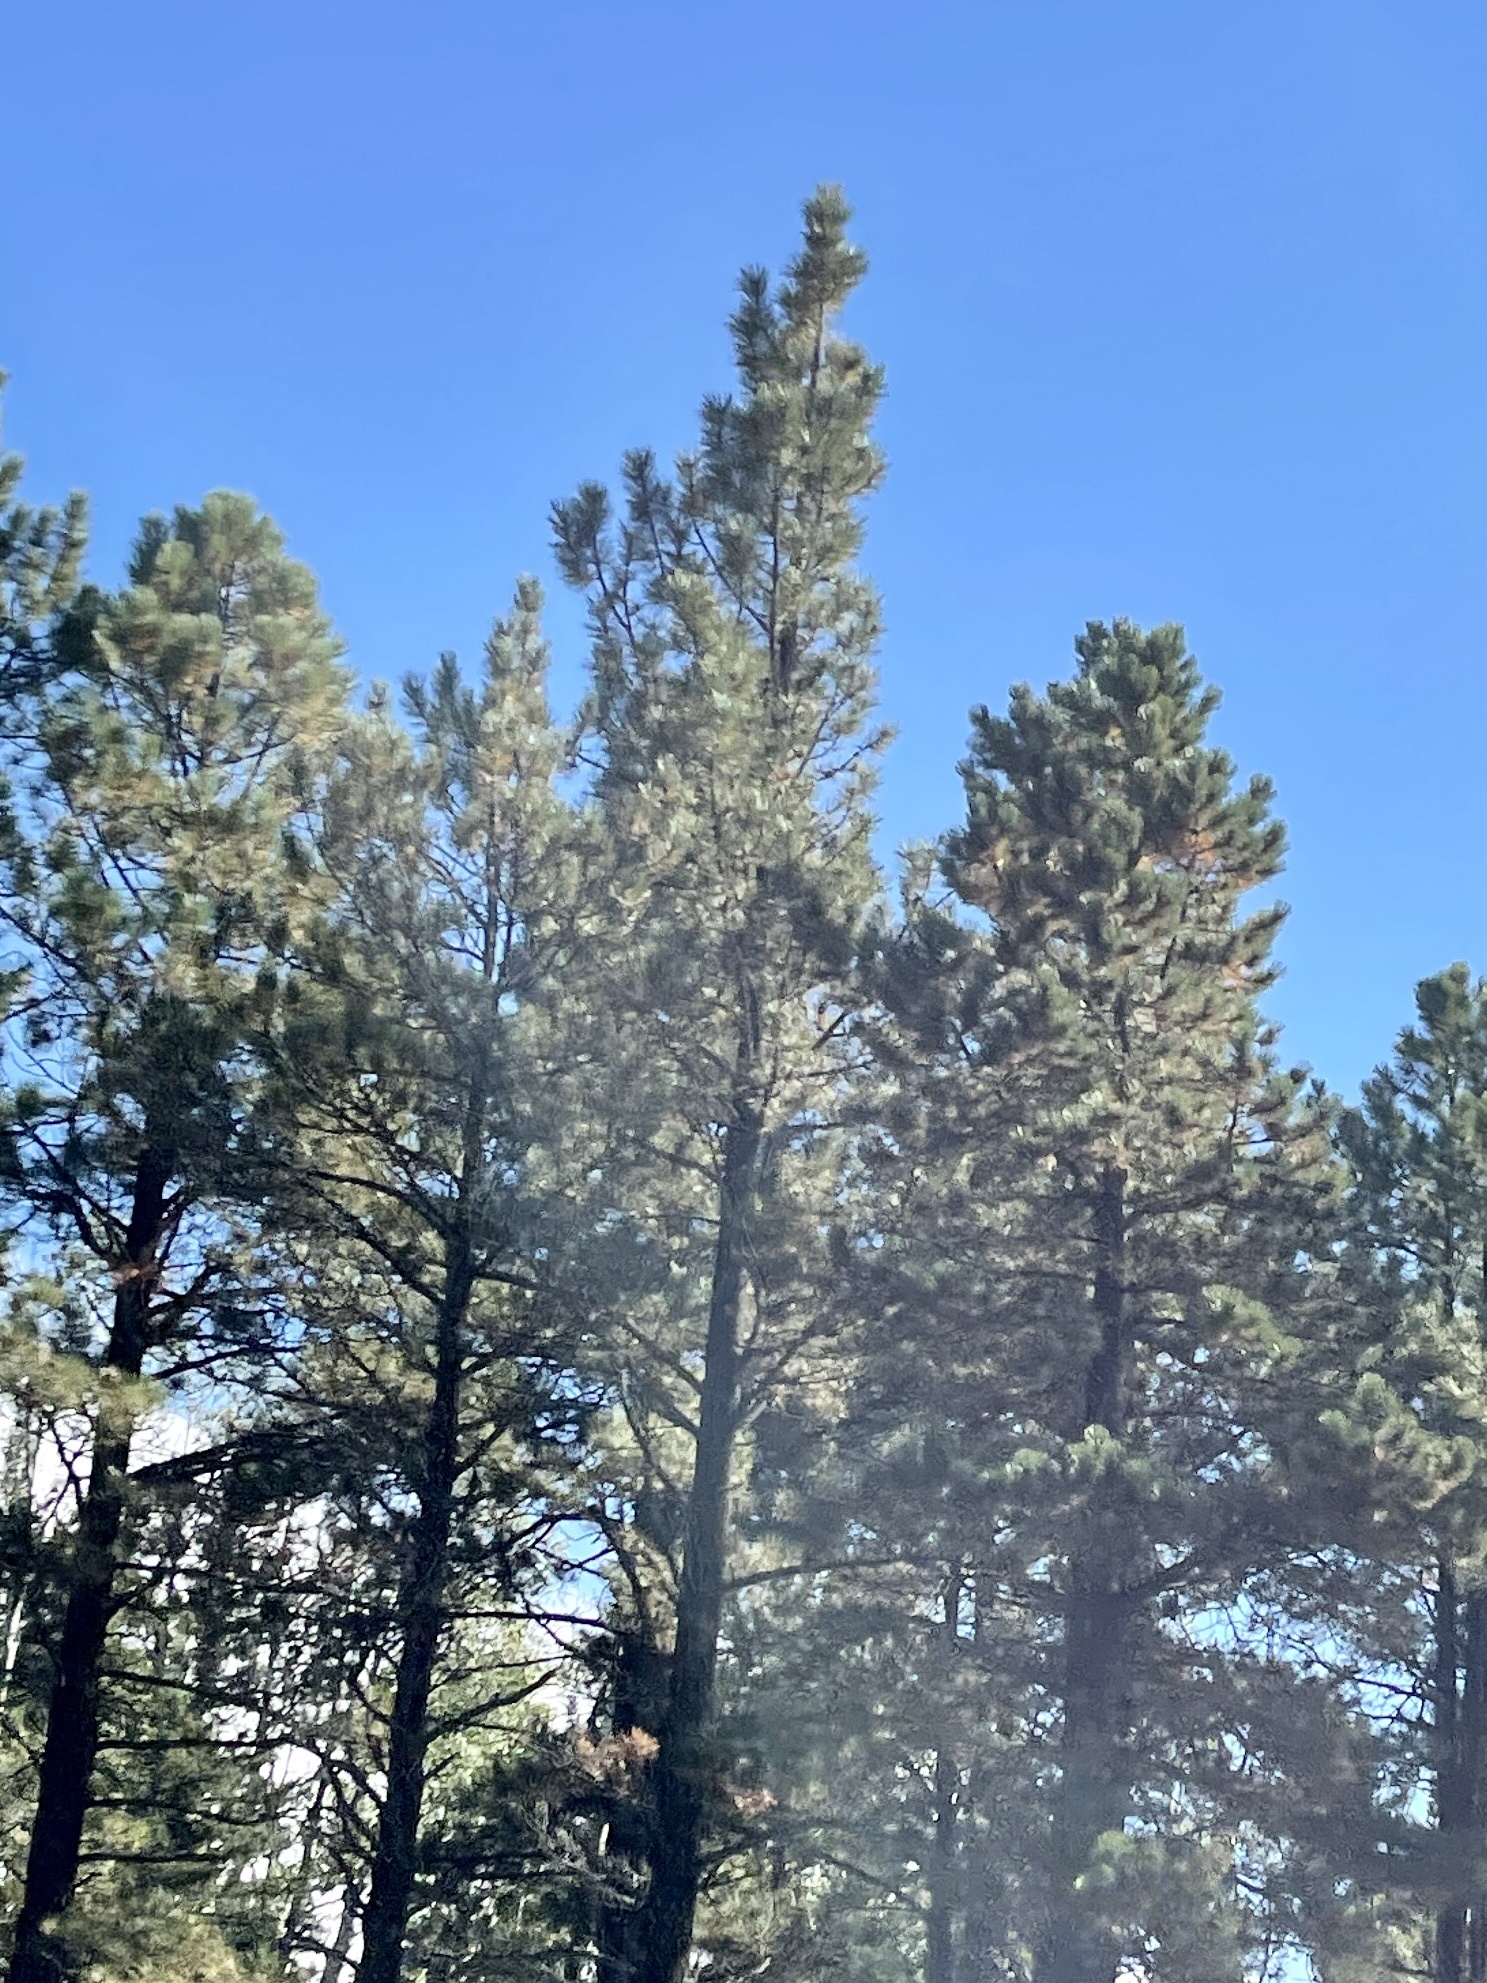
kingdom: Plantae
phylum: Tracheophyta
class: Pinopsida
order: Pinales
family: Pinaceae
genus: Pinus
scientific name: Pinus ponderosa
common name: Western yellow-pine
